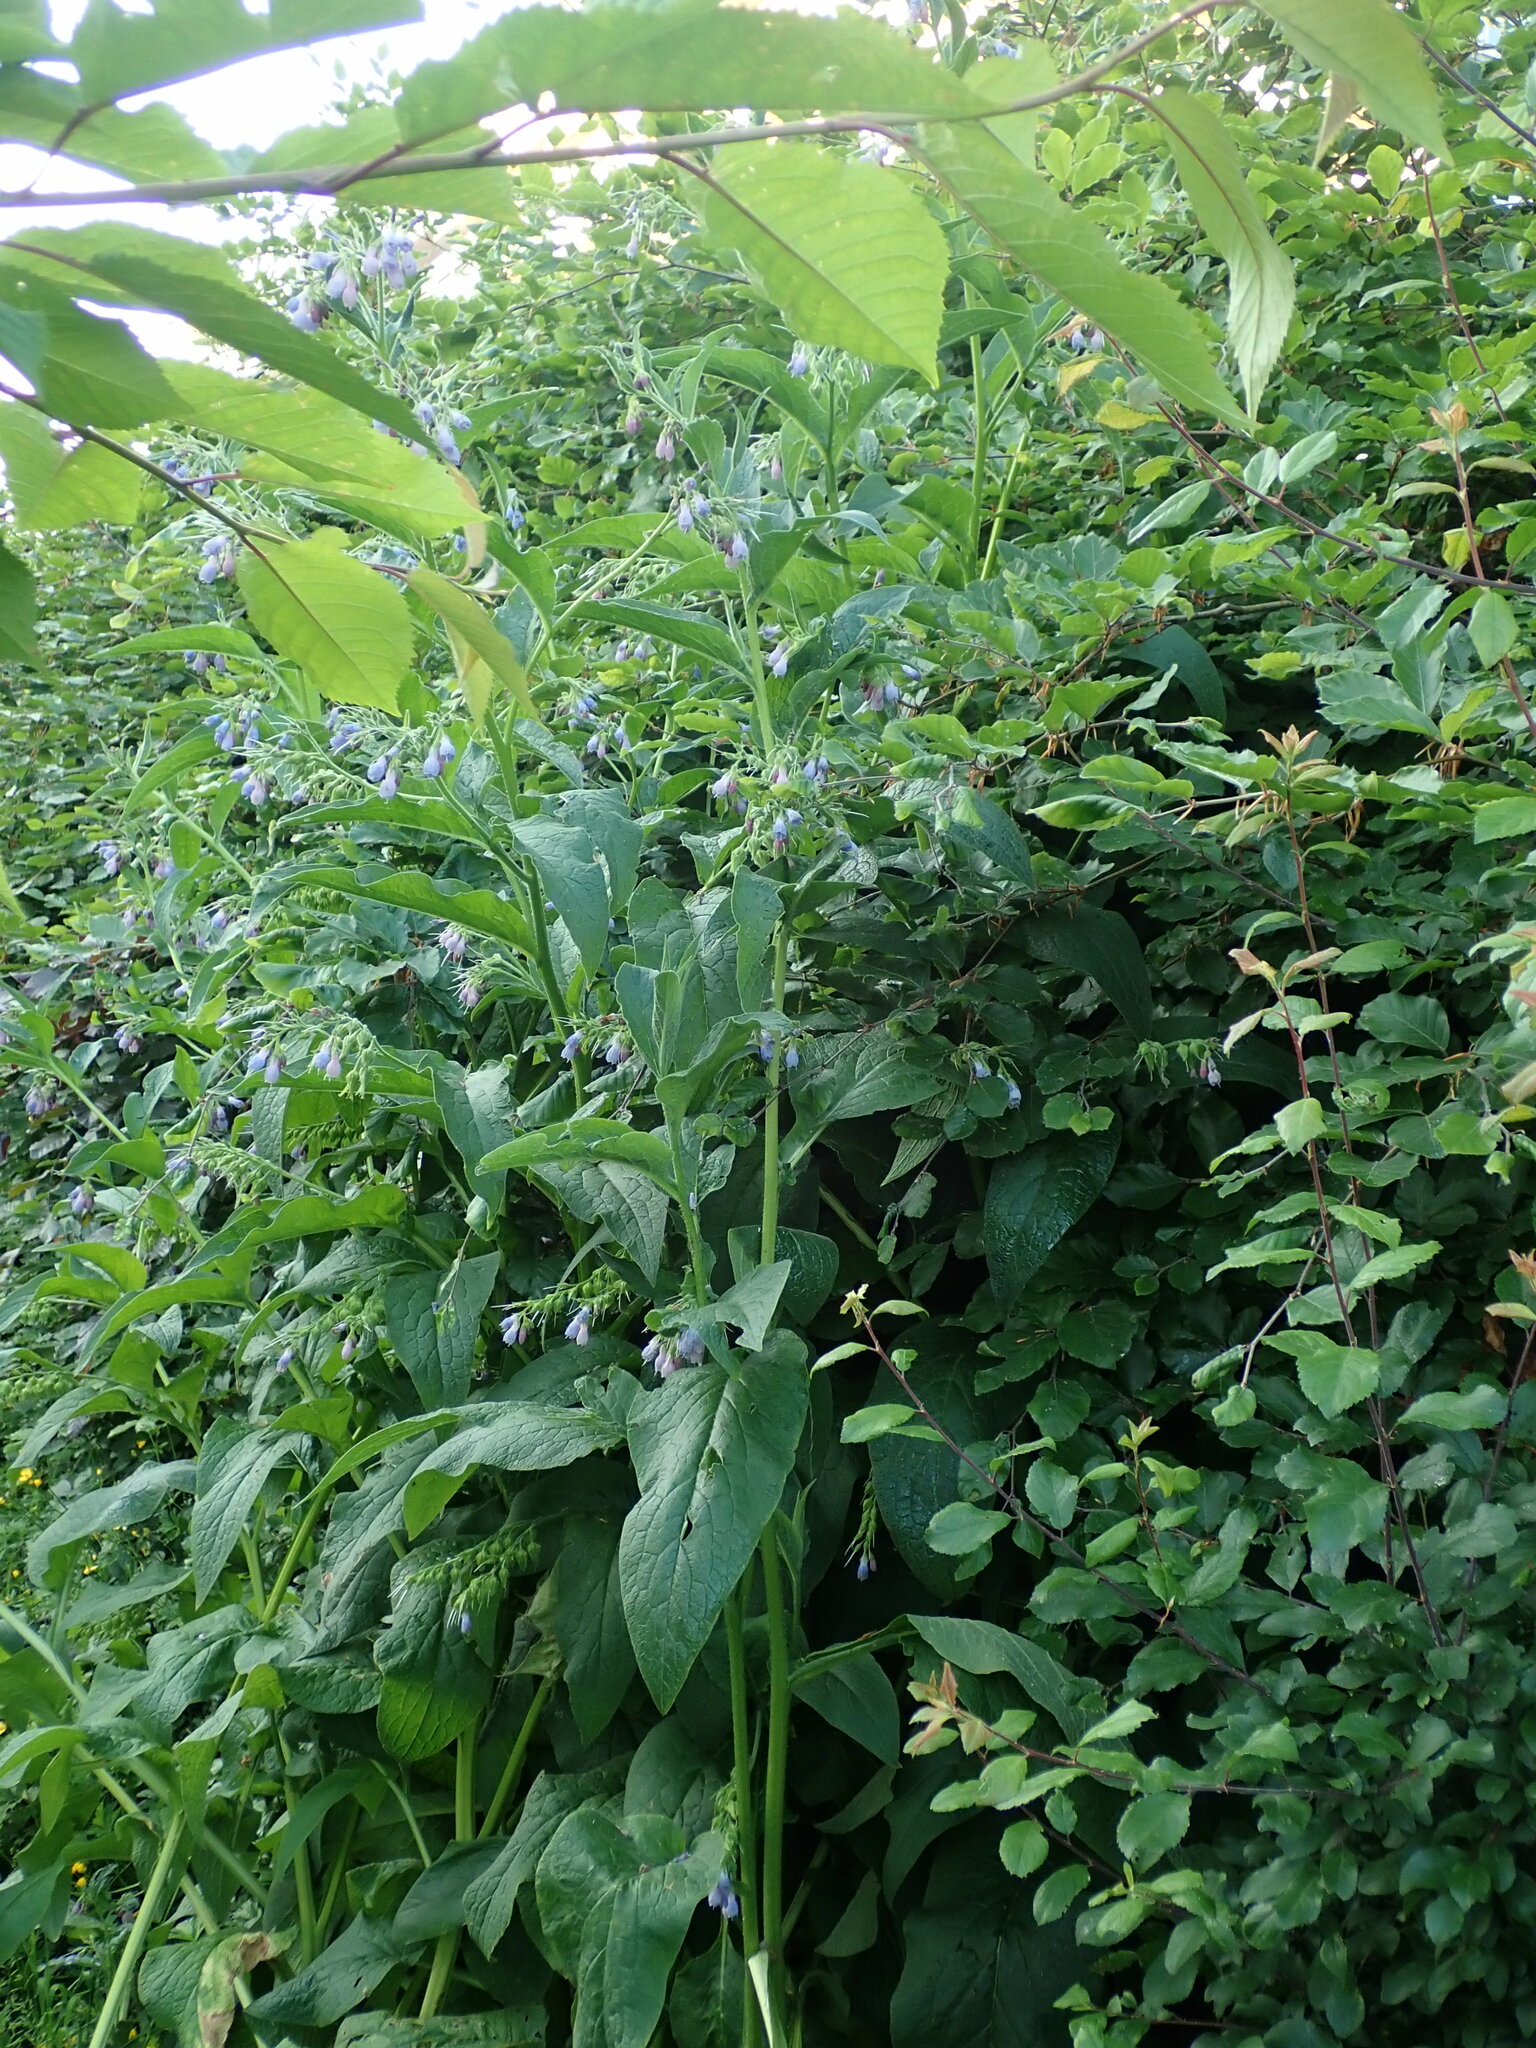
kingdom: Plantae
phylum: Tracheophyta
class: Magnoliopsida
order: Boraginales
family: Boraginaceae
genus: Symphytum
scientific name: Symphytum uplandicum
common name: Russian comfrey
